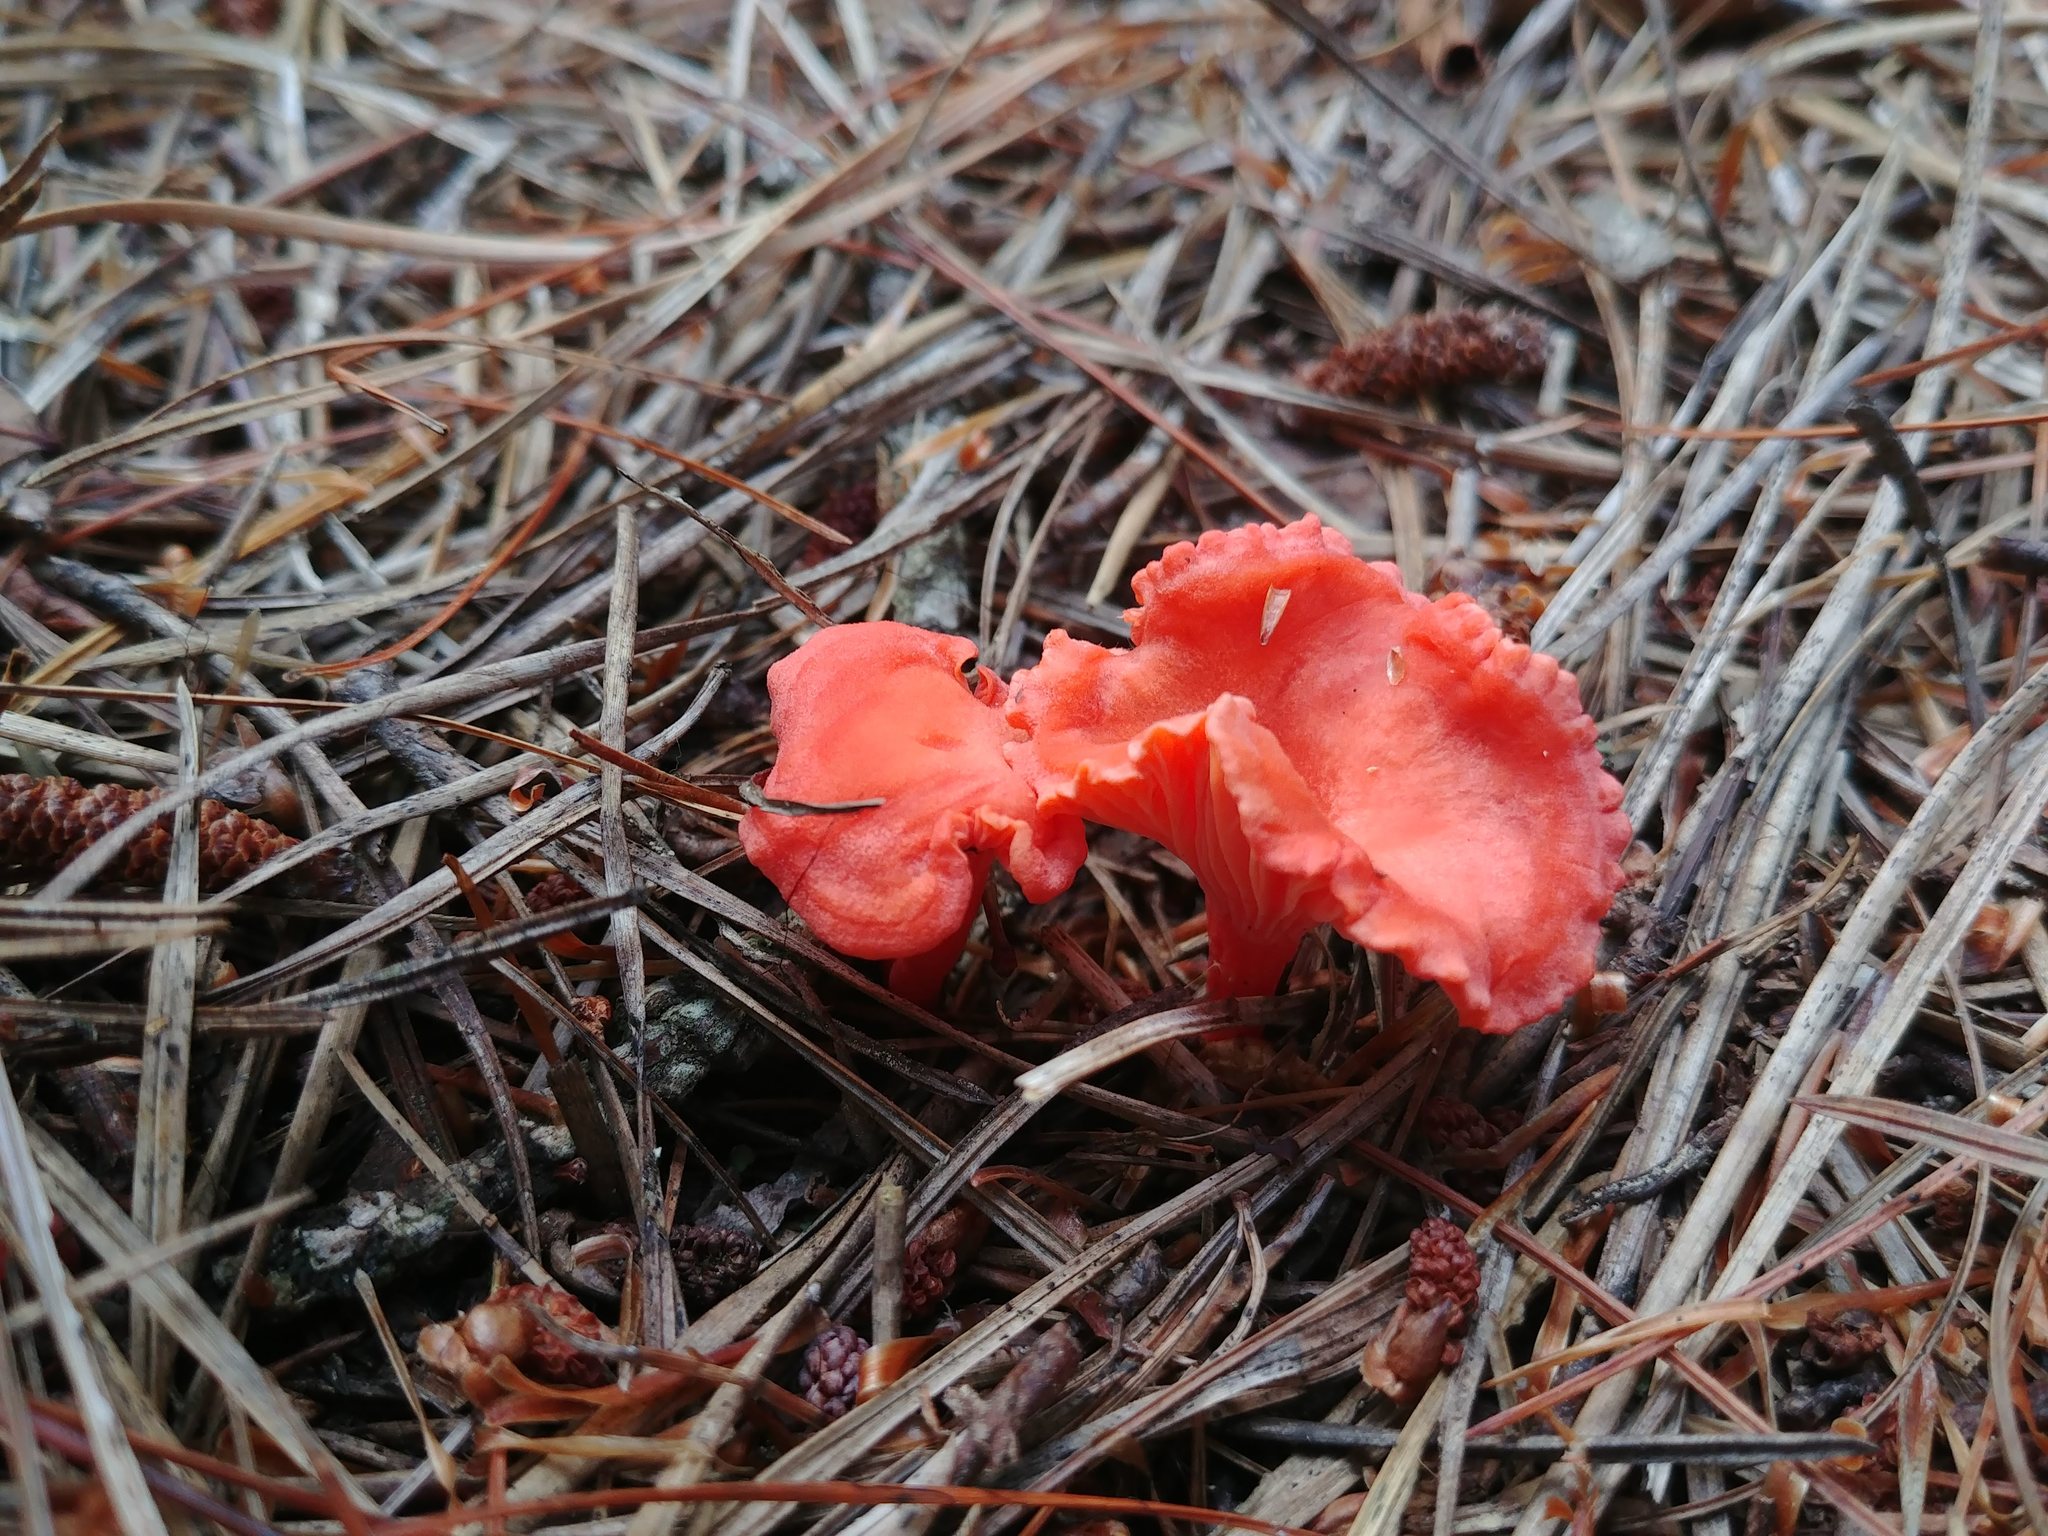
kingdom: Fungi
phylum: Basidiomycota
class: Agaricomycetes
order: Cantharellales
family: Hydnaceae
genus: Cantharellus
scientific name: Cantharellus cinnabarinus
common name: Cinnabar chanterelle
